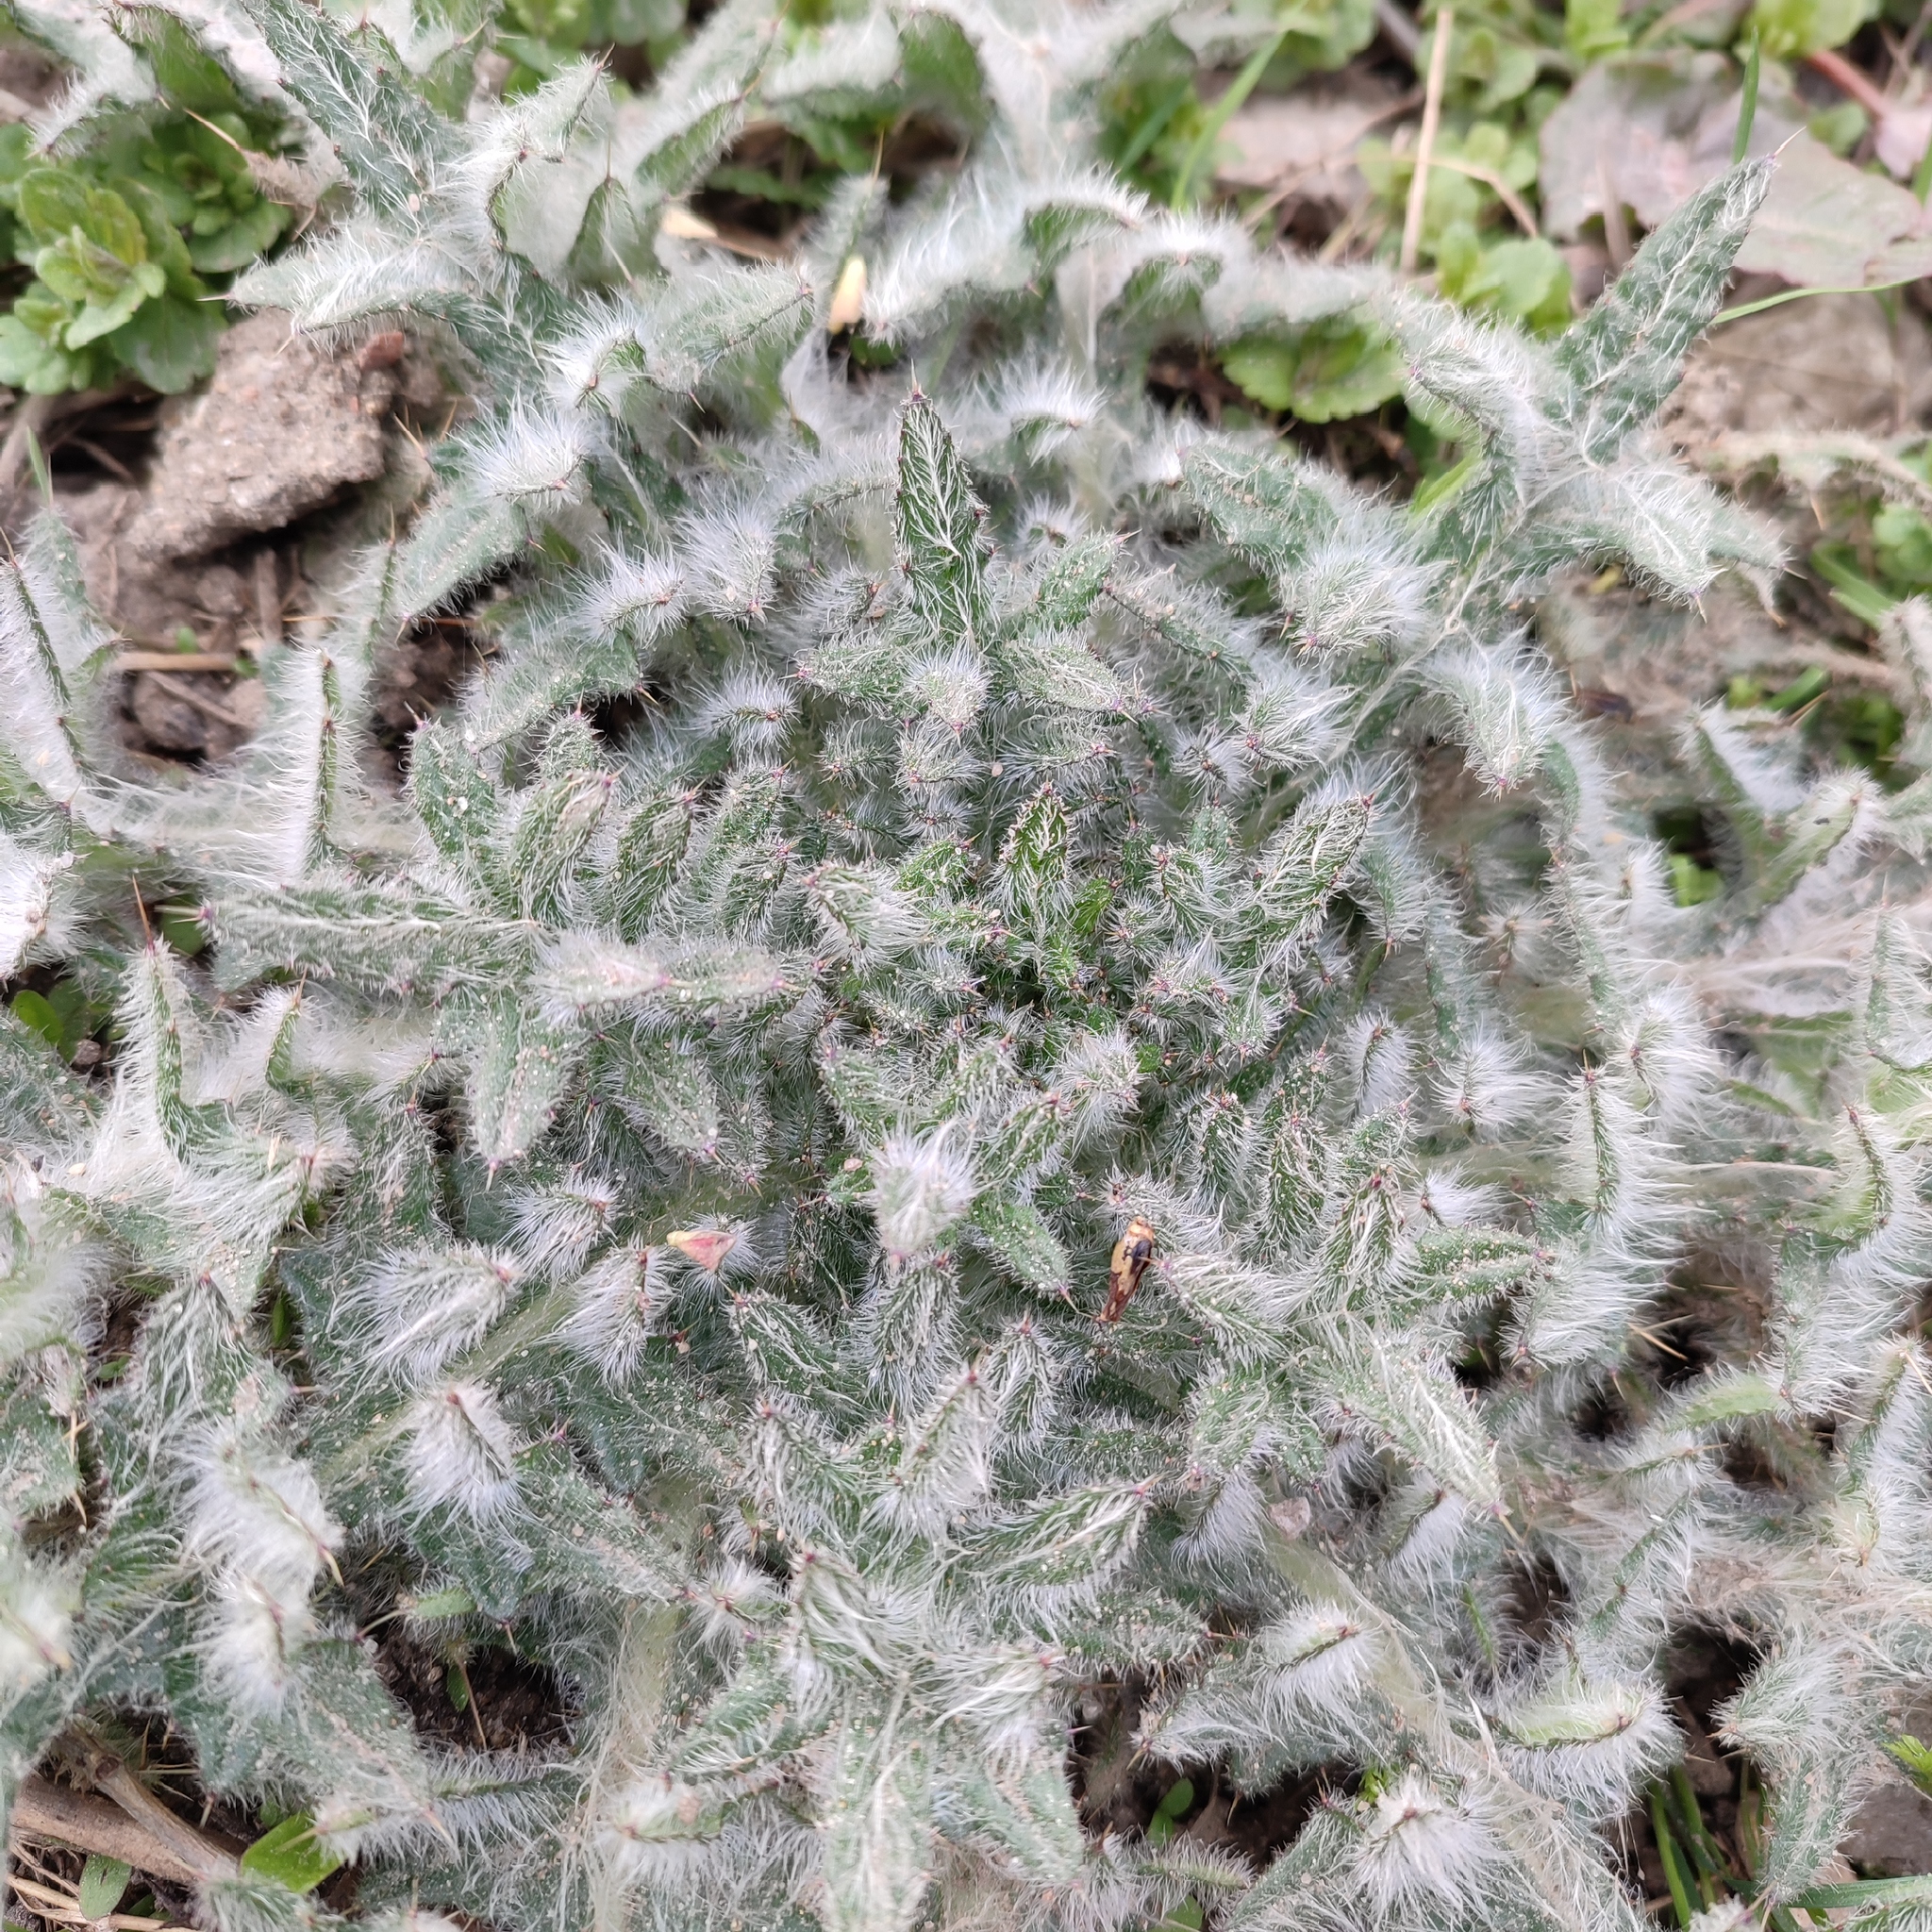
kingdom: Plantae
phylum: Tracheophyta
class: Magnoliopsida
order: Asterales
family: Asteraceae
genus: Cirsium
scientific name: Cirsium vulgare
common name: Bull thistle
